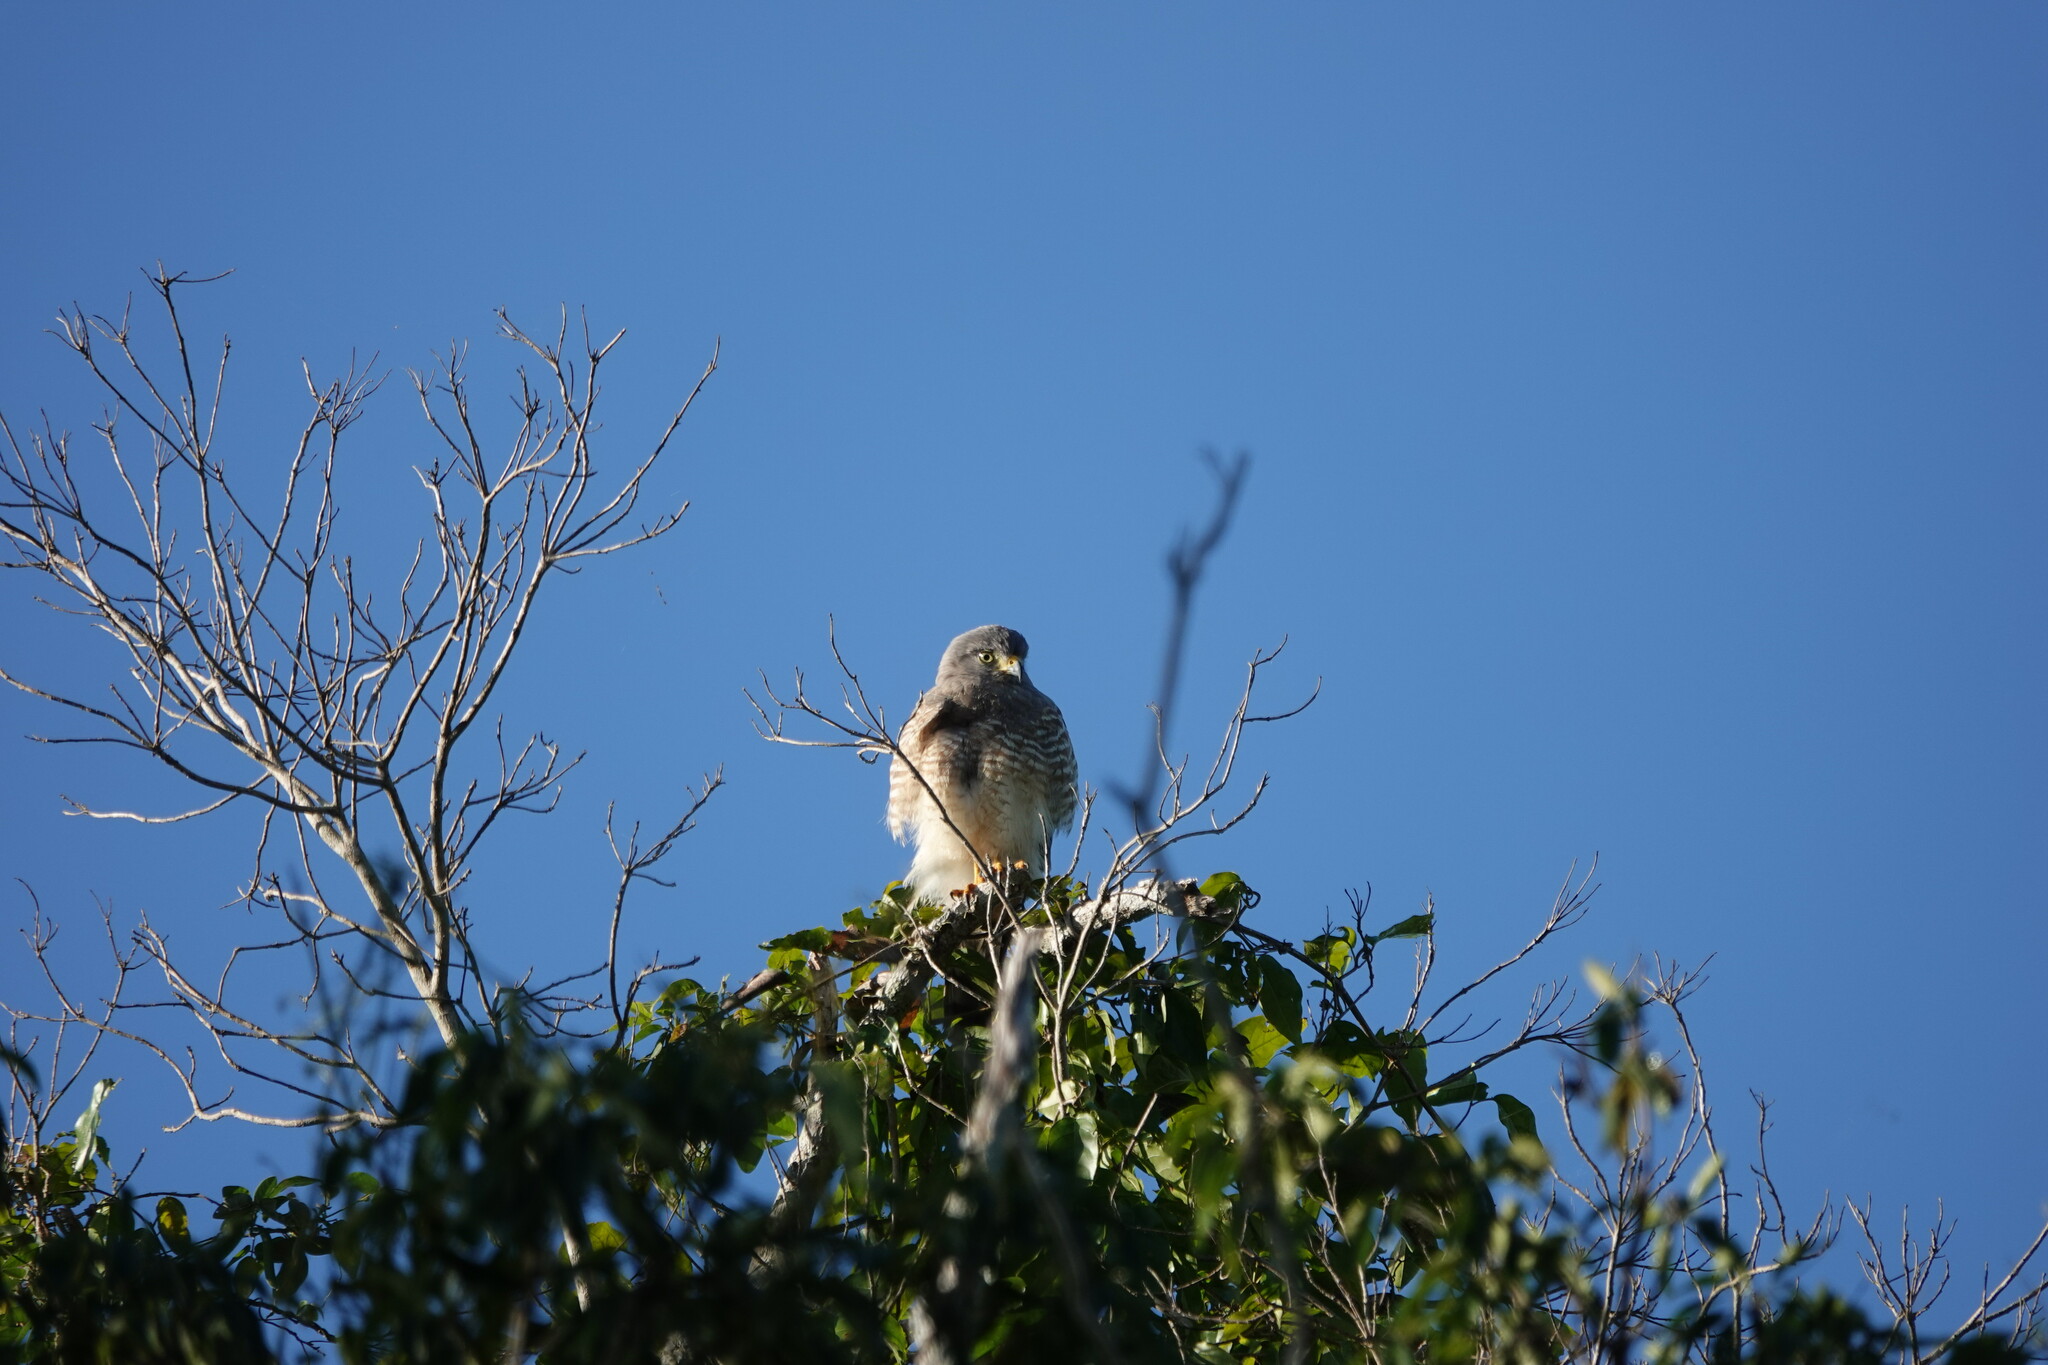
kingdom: Animalia
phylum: Chordata
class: Aves
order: Accipitriformes
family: Accipitridae
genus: Rupornis
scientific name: Rupornis magnirostris
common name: Roadside hawk
